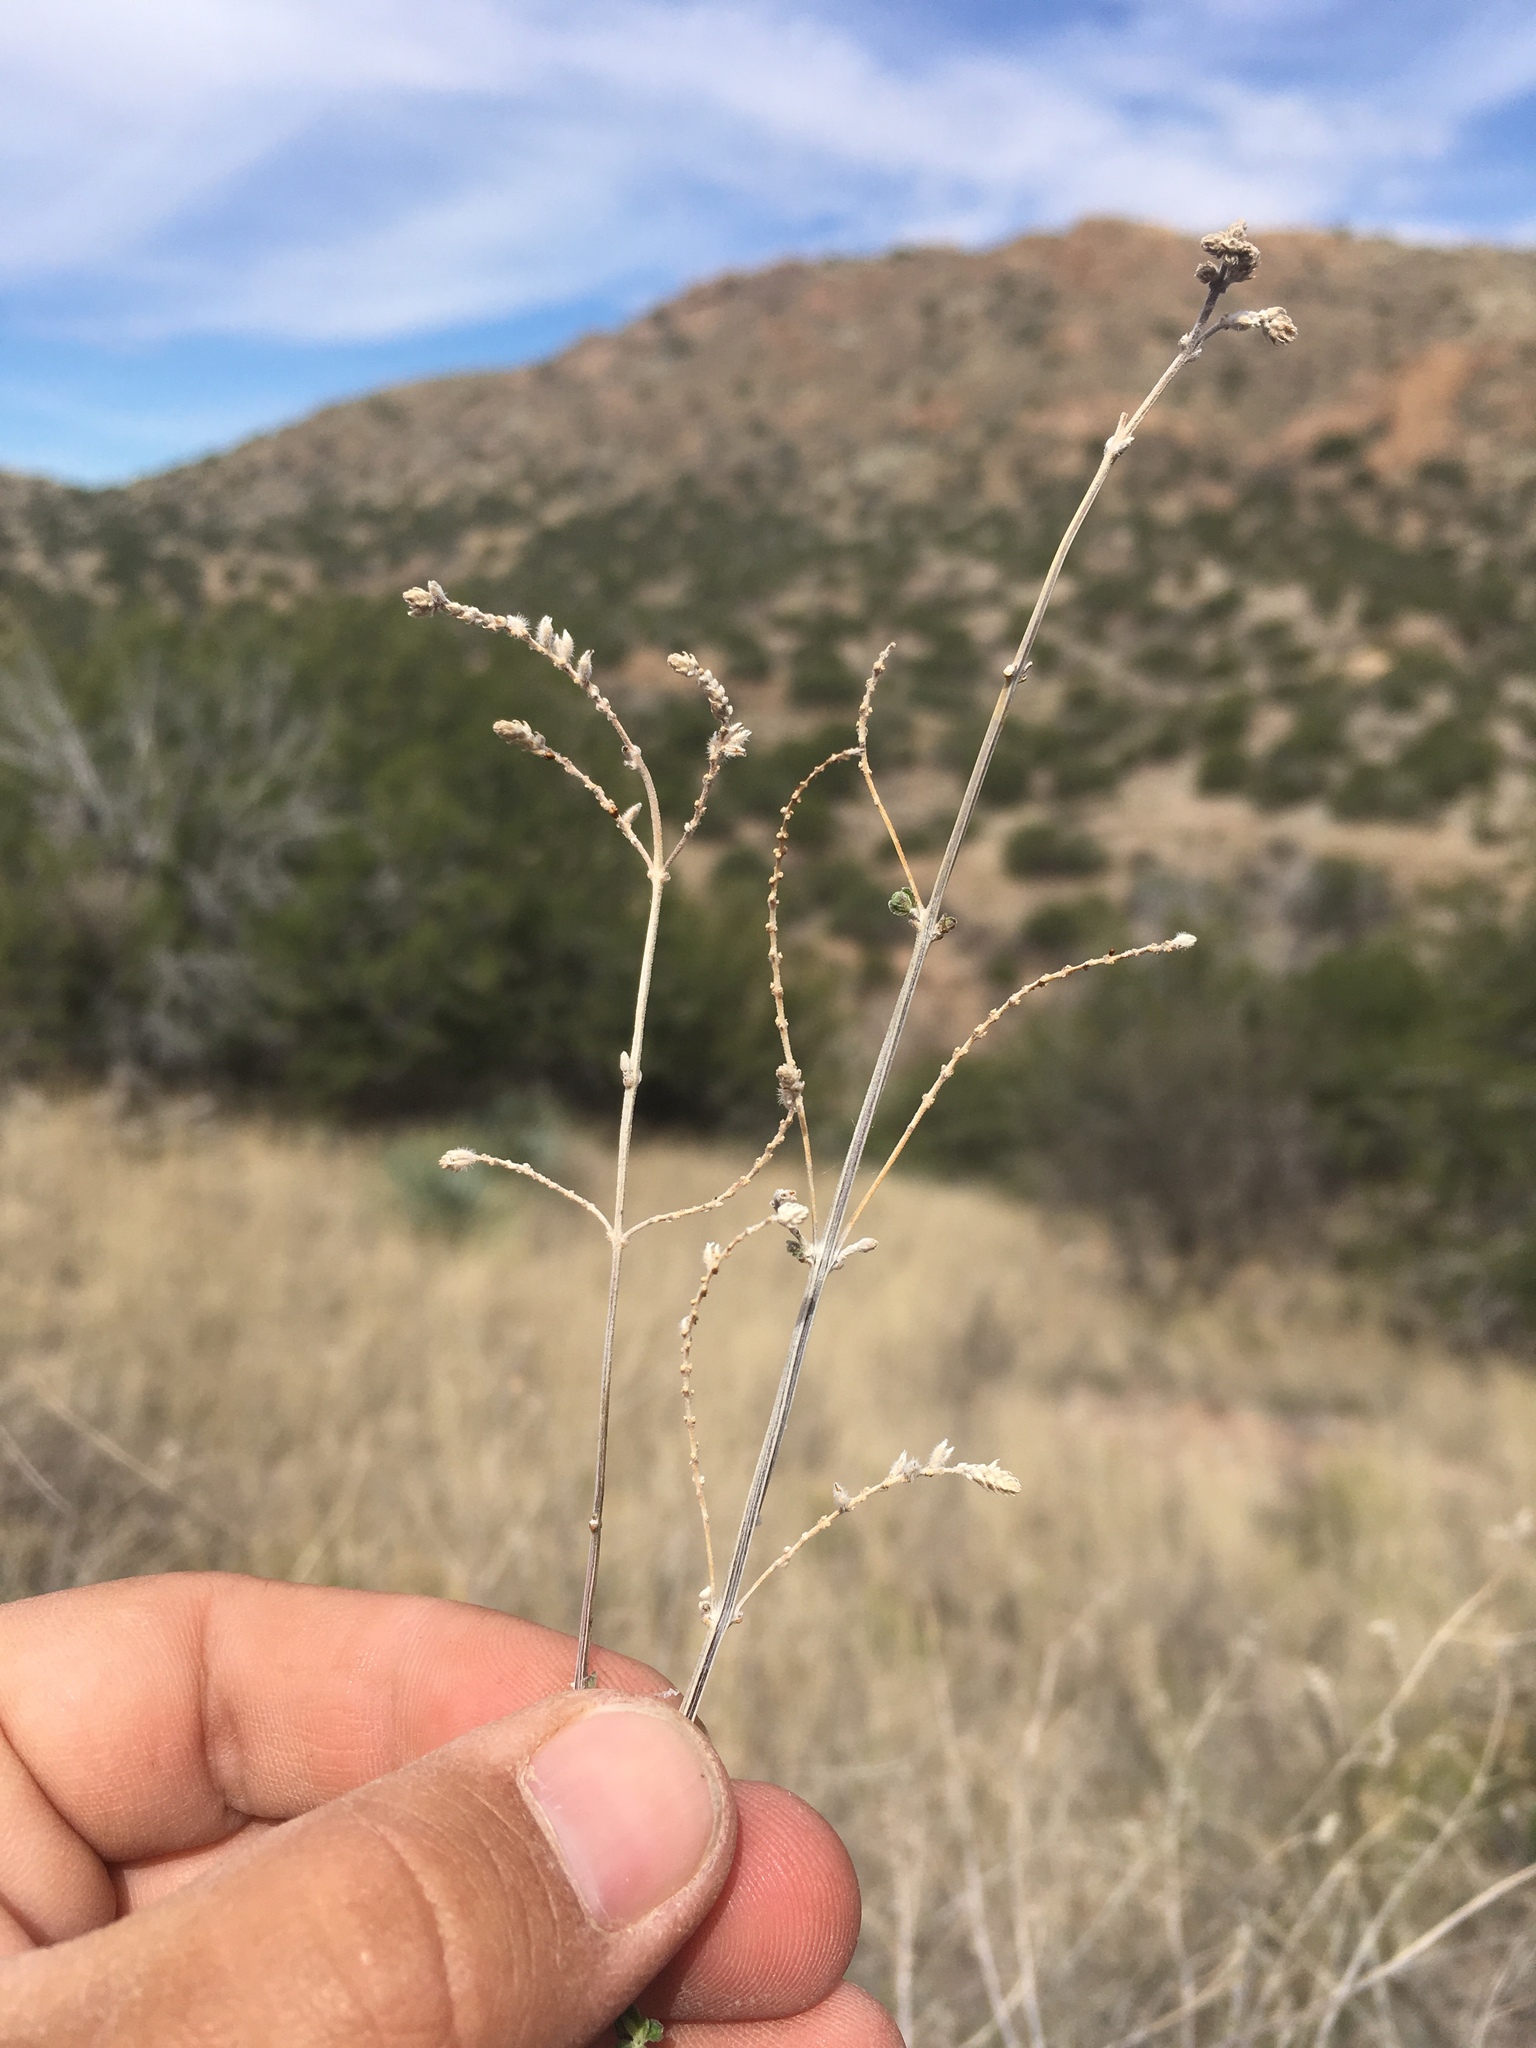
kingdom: Plantae
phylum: Tracheophyta
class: Magnoliopsida
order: Lamiales
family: Verbenaceae
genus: Aloysia
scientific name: Aloysia wrightii
